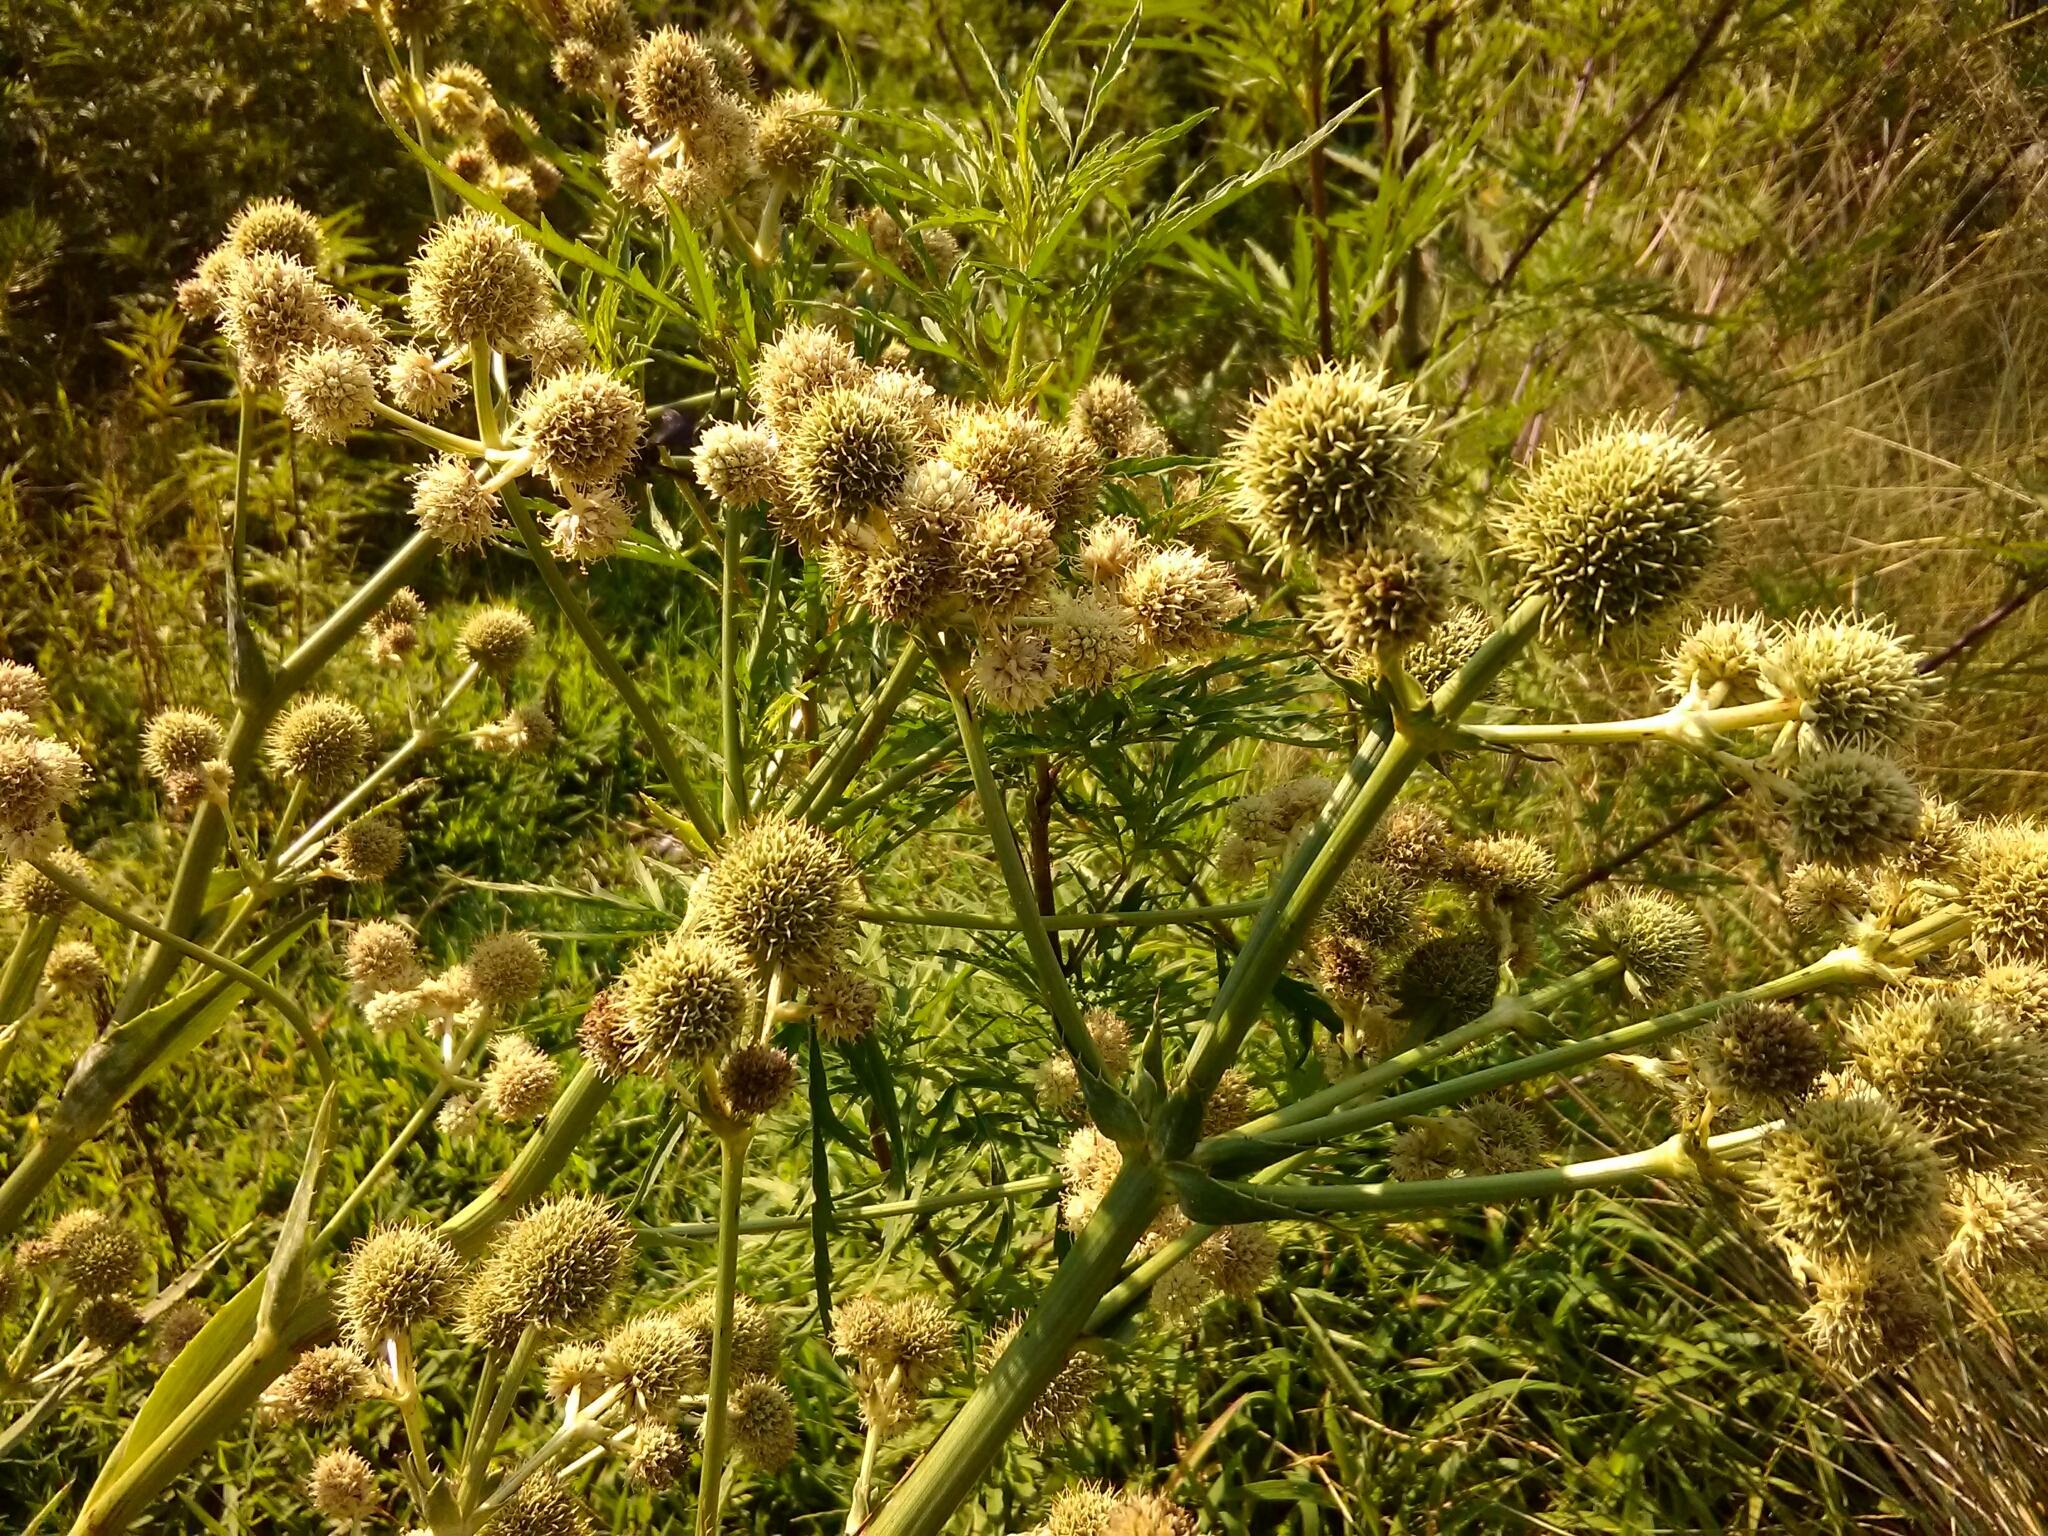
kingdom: Plantae
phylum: Tracheophyta
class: Magnoliopsida
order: Apiales
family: Apiaceae
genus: Eryngium
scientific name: Eryngium yuccifolium
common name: Button eryngo
